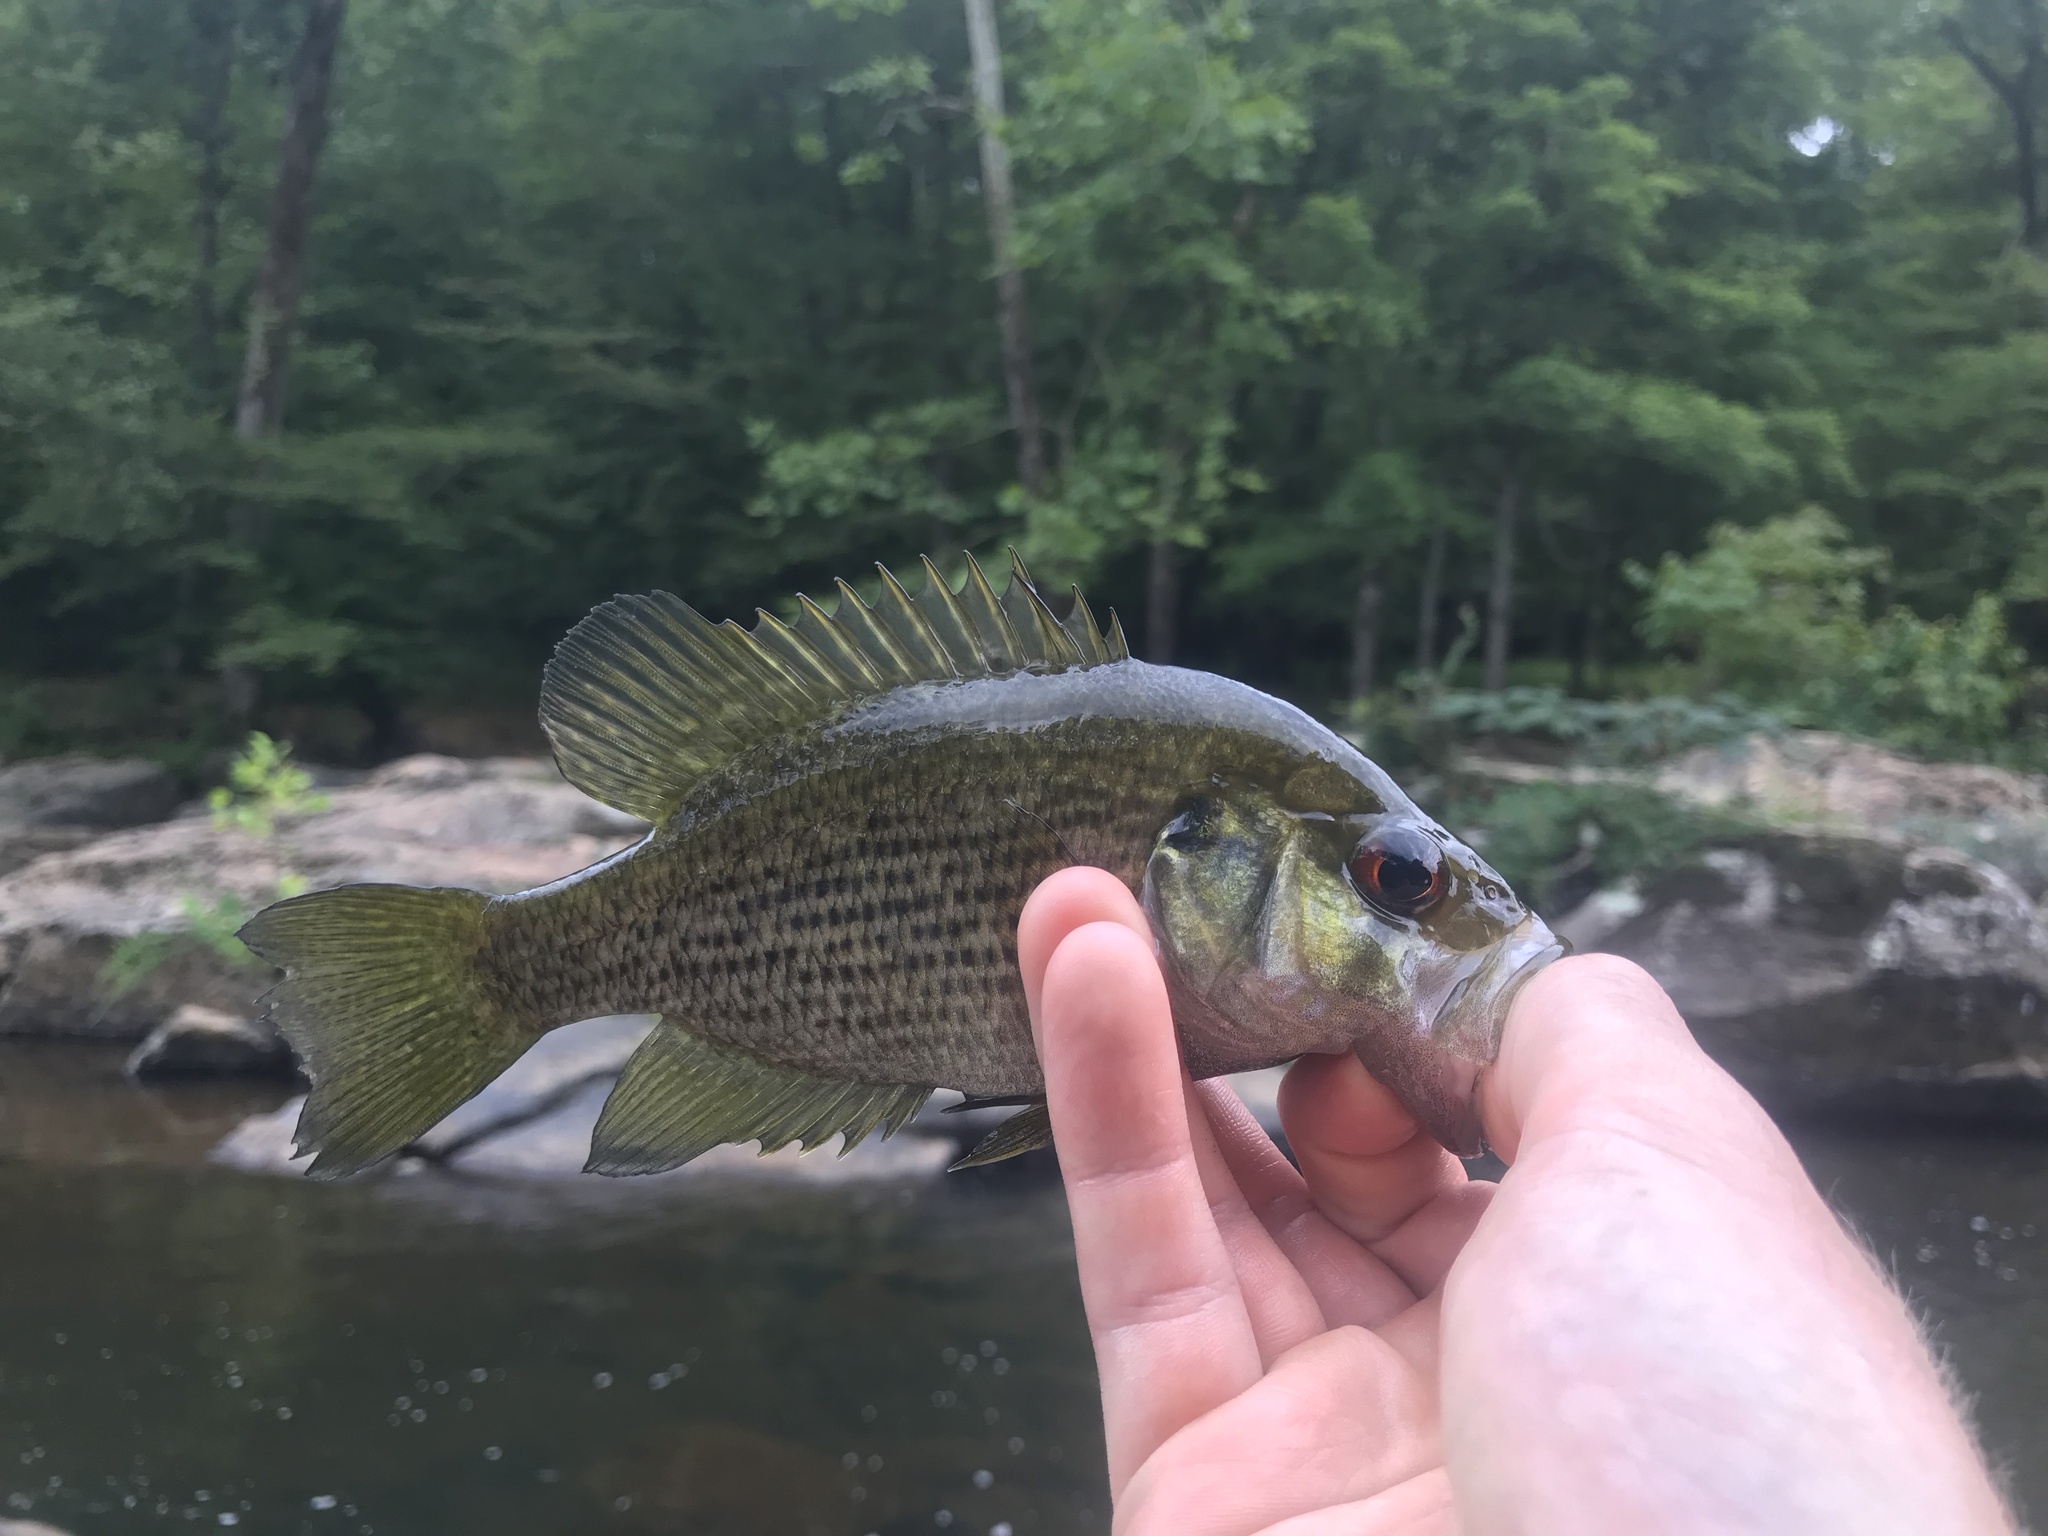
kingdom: Animalia
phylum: Chordata
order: Perciformes
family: Centrarchidae
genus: Ambloplites
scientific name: Ambloplites cavifrons
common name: Roanoke bass
